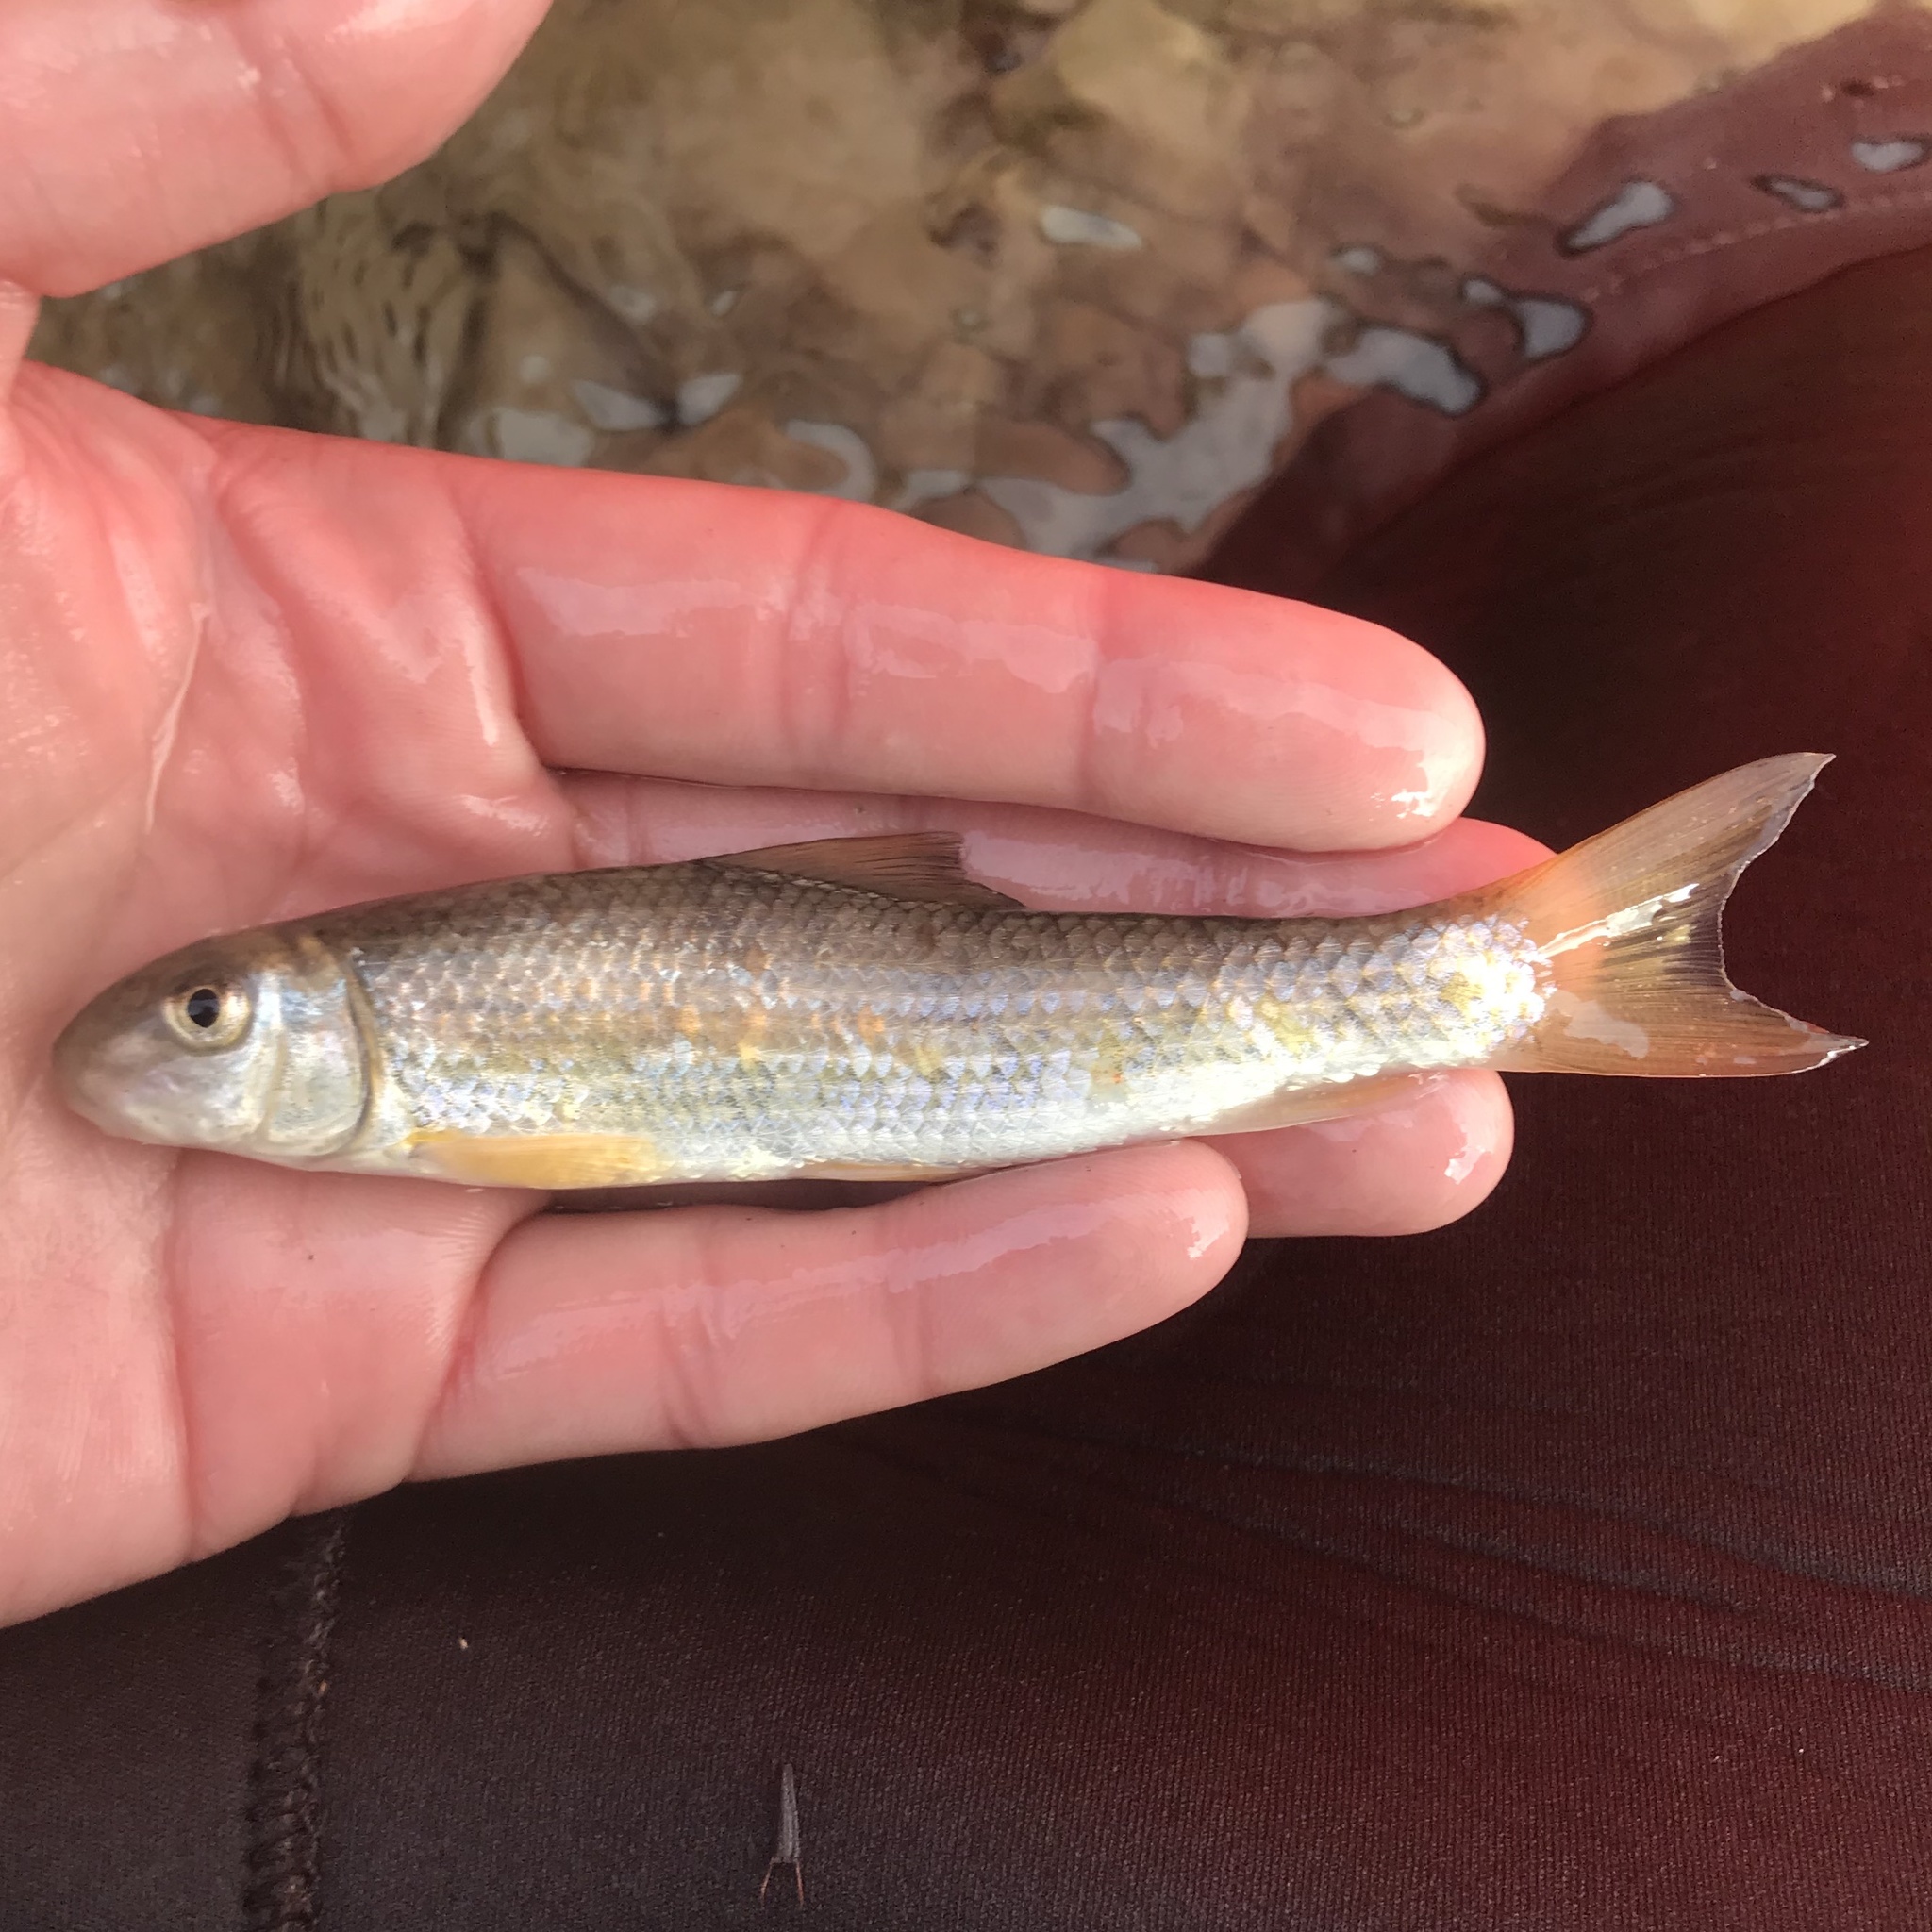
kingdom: Animalia
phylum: Chordata
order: Cypriniformes
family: Catostomidae
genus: Moxostoma
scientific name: Moxostoma congestum
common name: Gray redhorse
